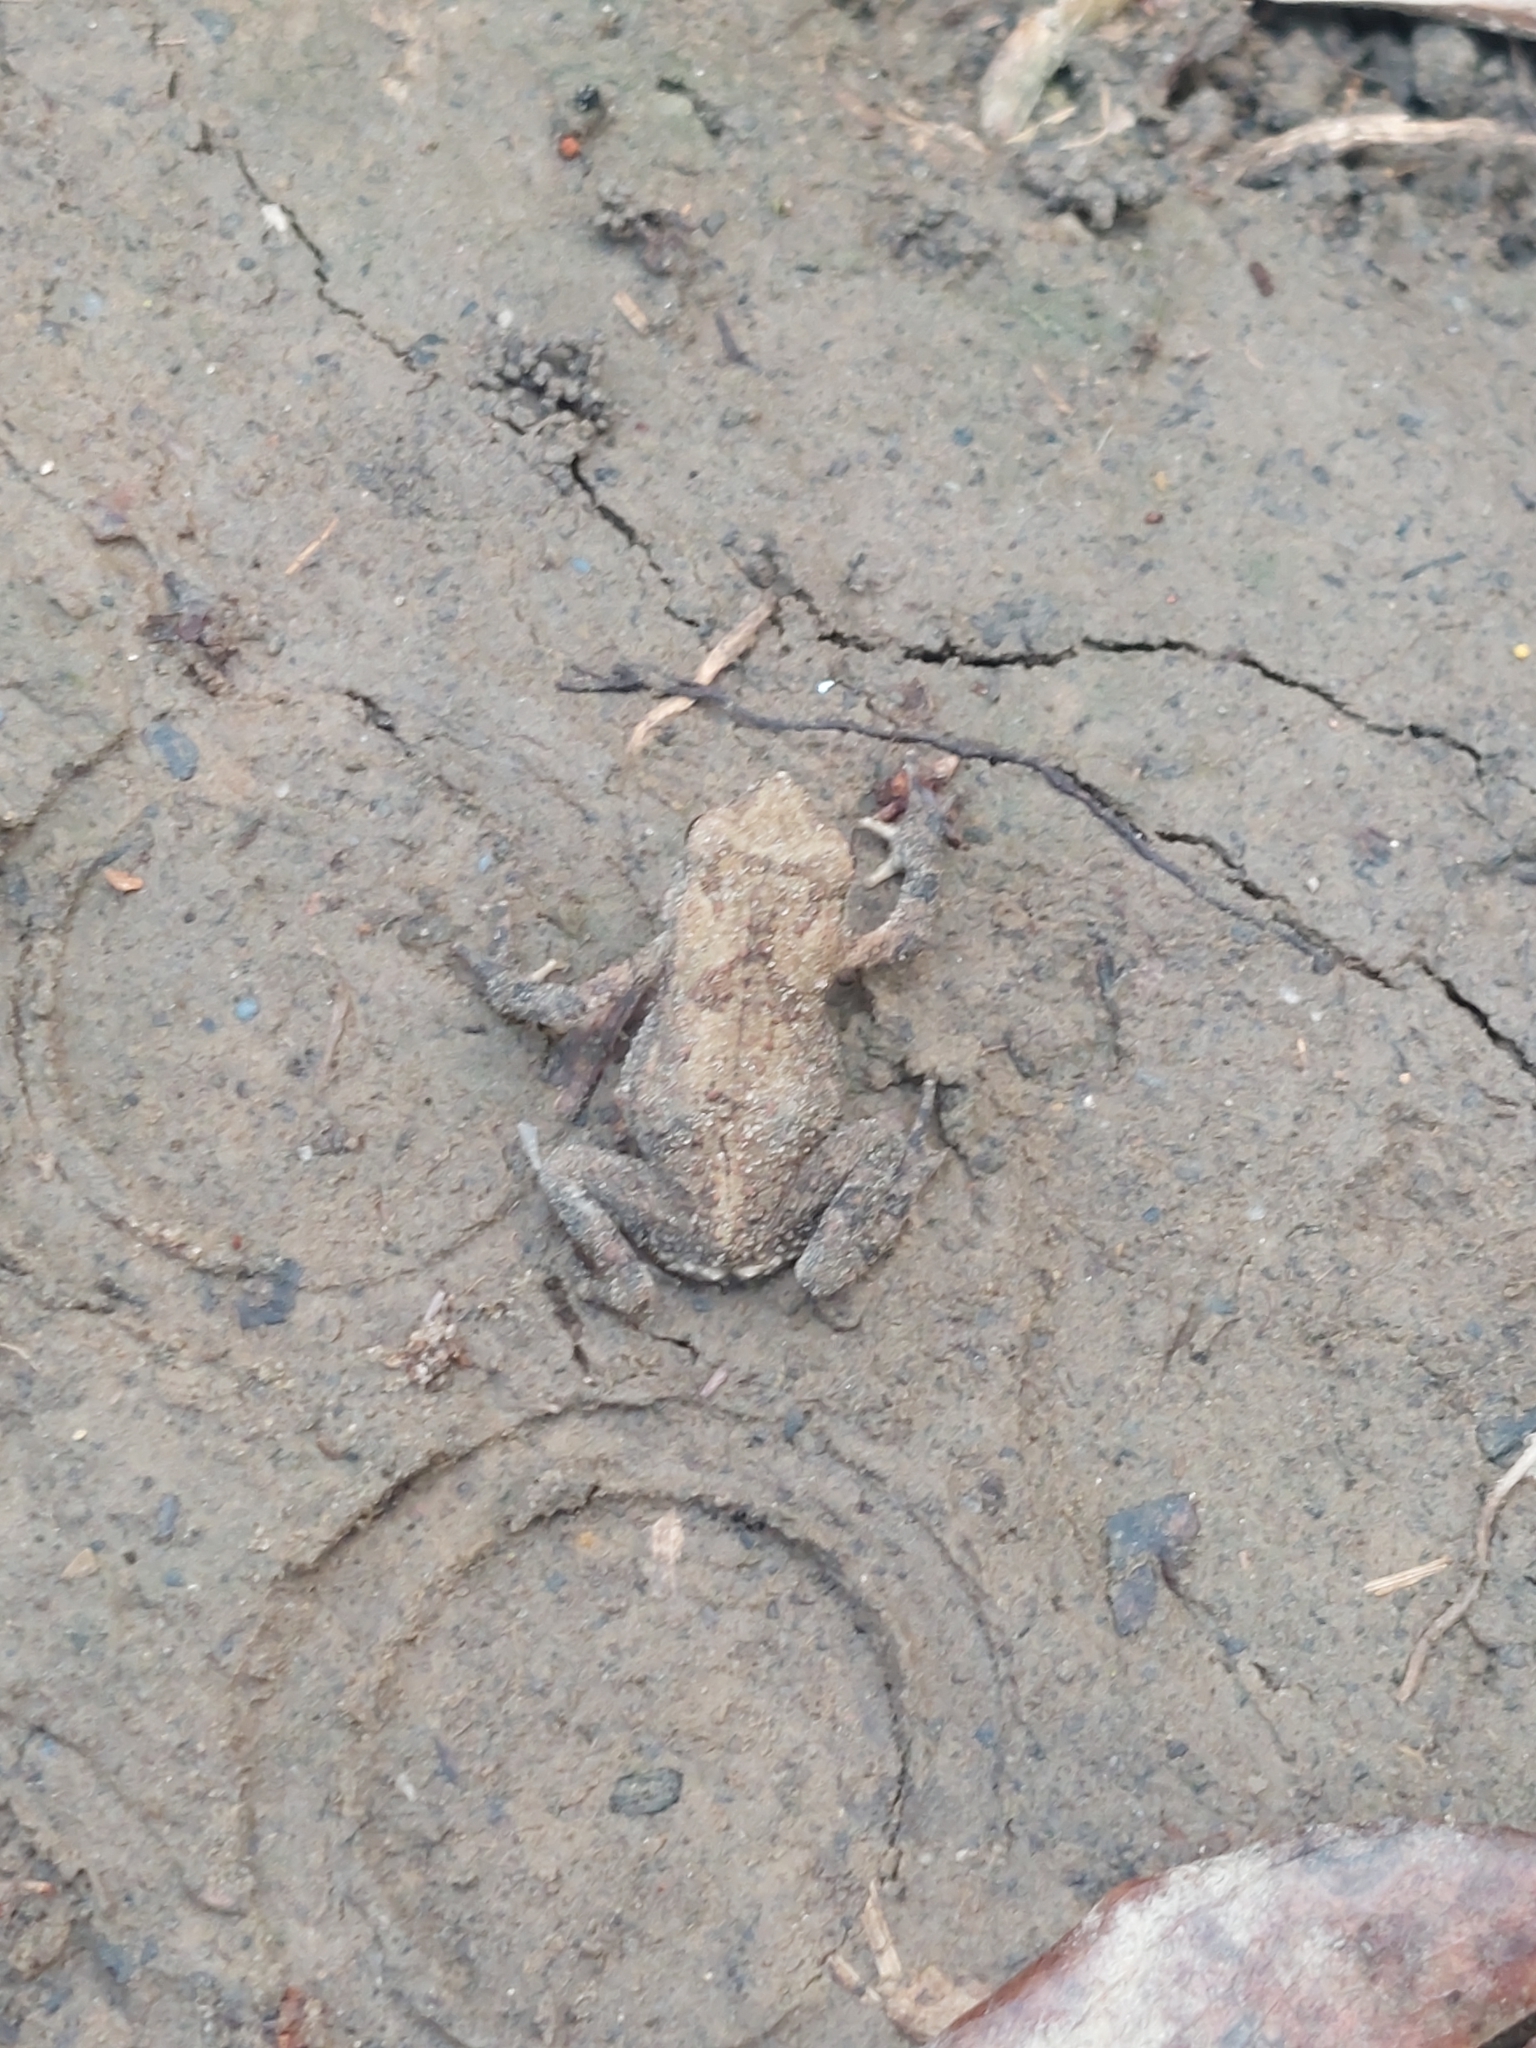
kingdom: Animalia
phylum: Chordata
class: Amphibia
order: Anura
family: Rhacophoridae
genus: Kurixalus
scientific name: Kurixalus idiootocus
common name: Temple treefrog
